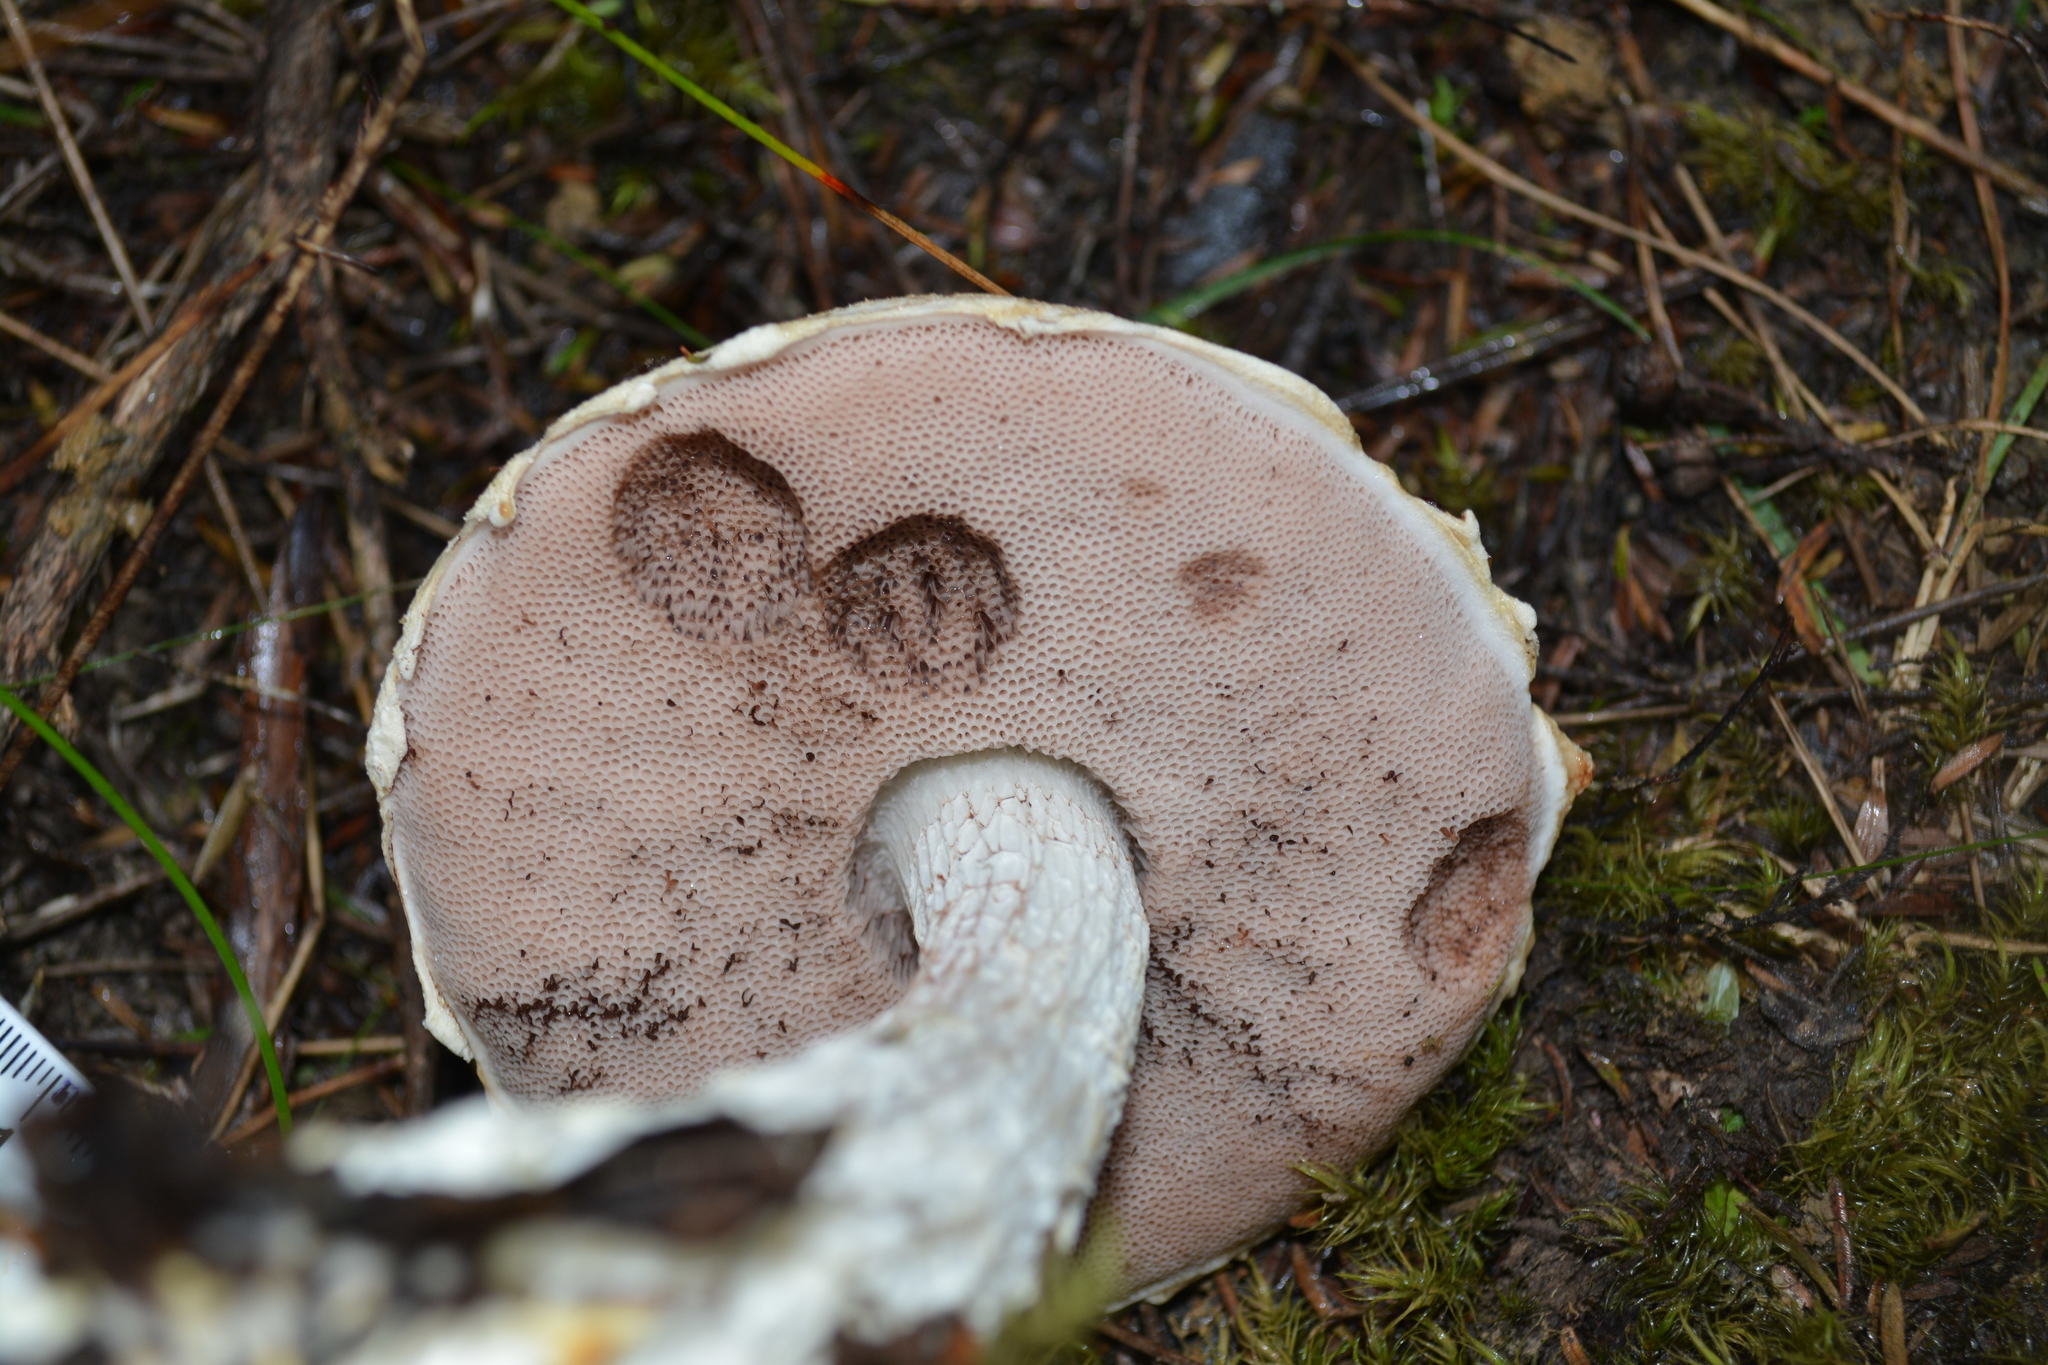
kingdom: Fungi
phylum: Basidiomycota
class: Agaricomycetes
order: Boletales
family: Boletaceae
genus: Austroboletus
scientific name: Austroboletus lacunosus
